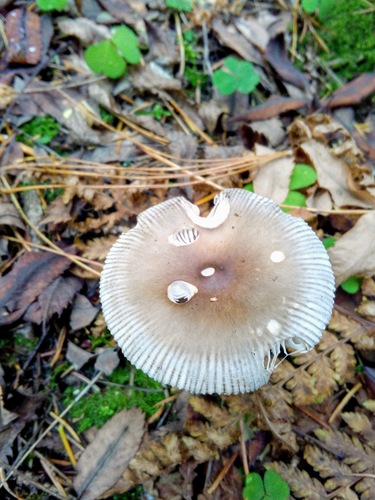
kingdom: Fungi
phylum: Basidiomycota
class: Agaricomycetes
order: Agaricales
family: Amanitaceae
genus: Amanita
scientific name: Amanita battarrae
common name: Banded amanita
